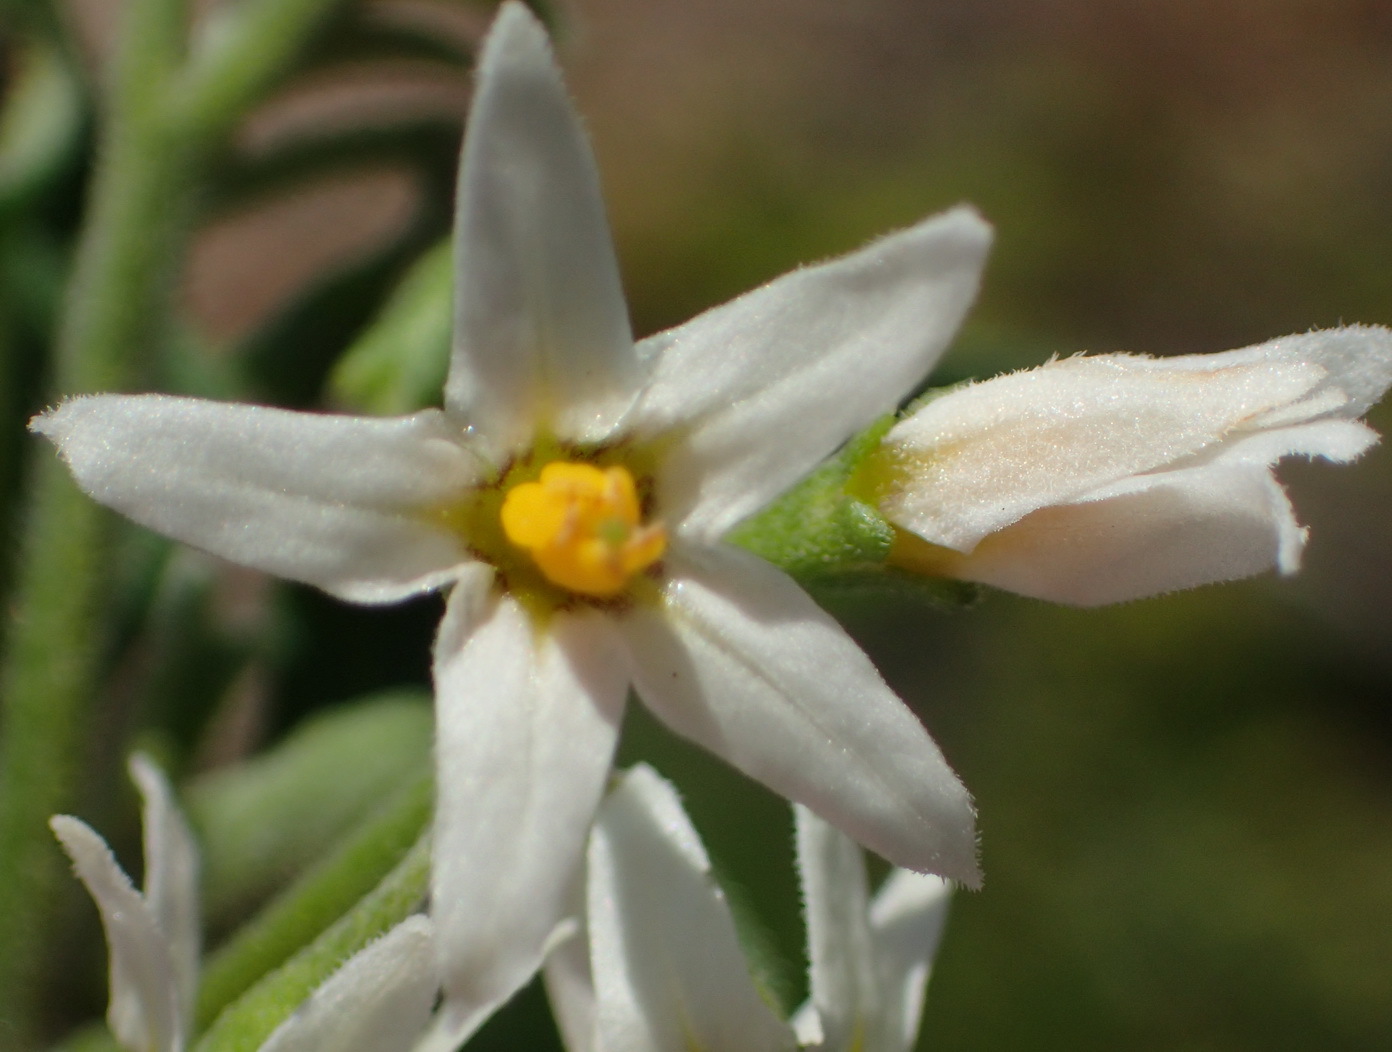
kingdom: Plantae
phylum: Tracheophyta
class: Magnoliopsida
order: Solanales
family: Solanaceae
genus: Solanum
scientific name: Solanum chenopodioides
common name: Tall nightshade
